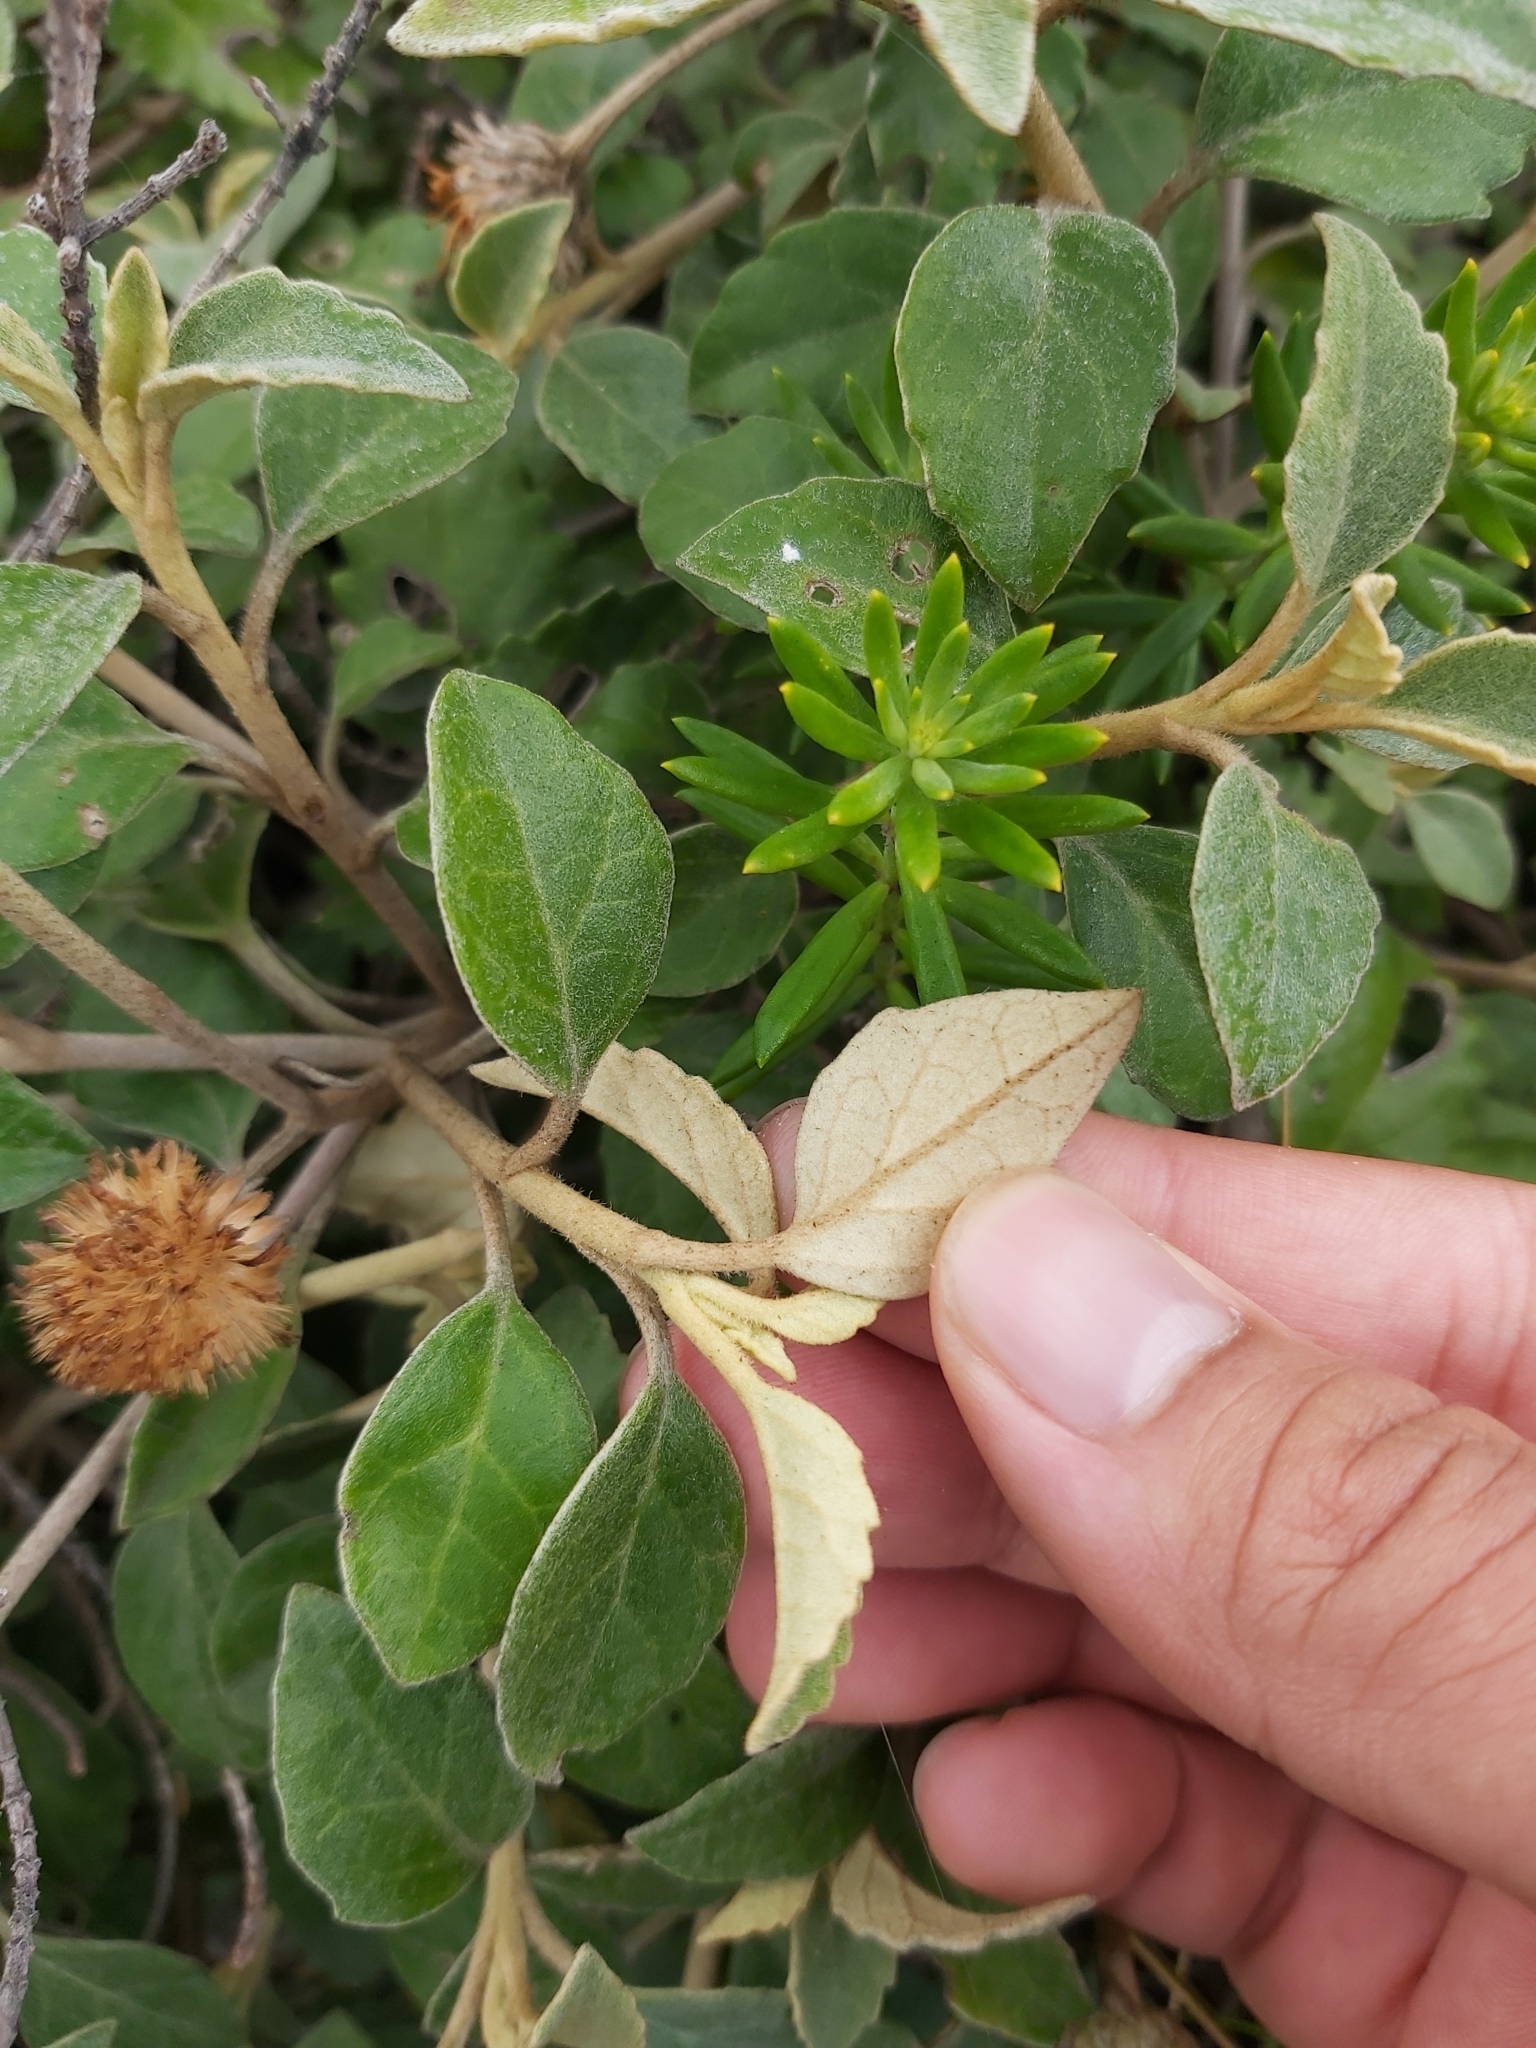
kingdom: Plantae
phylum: Tracheophyta
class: Magnoliopsida
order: Asterales
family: Asteraceae
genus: Olearia
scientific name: Olearia tomentosa
